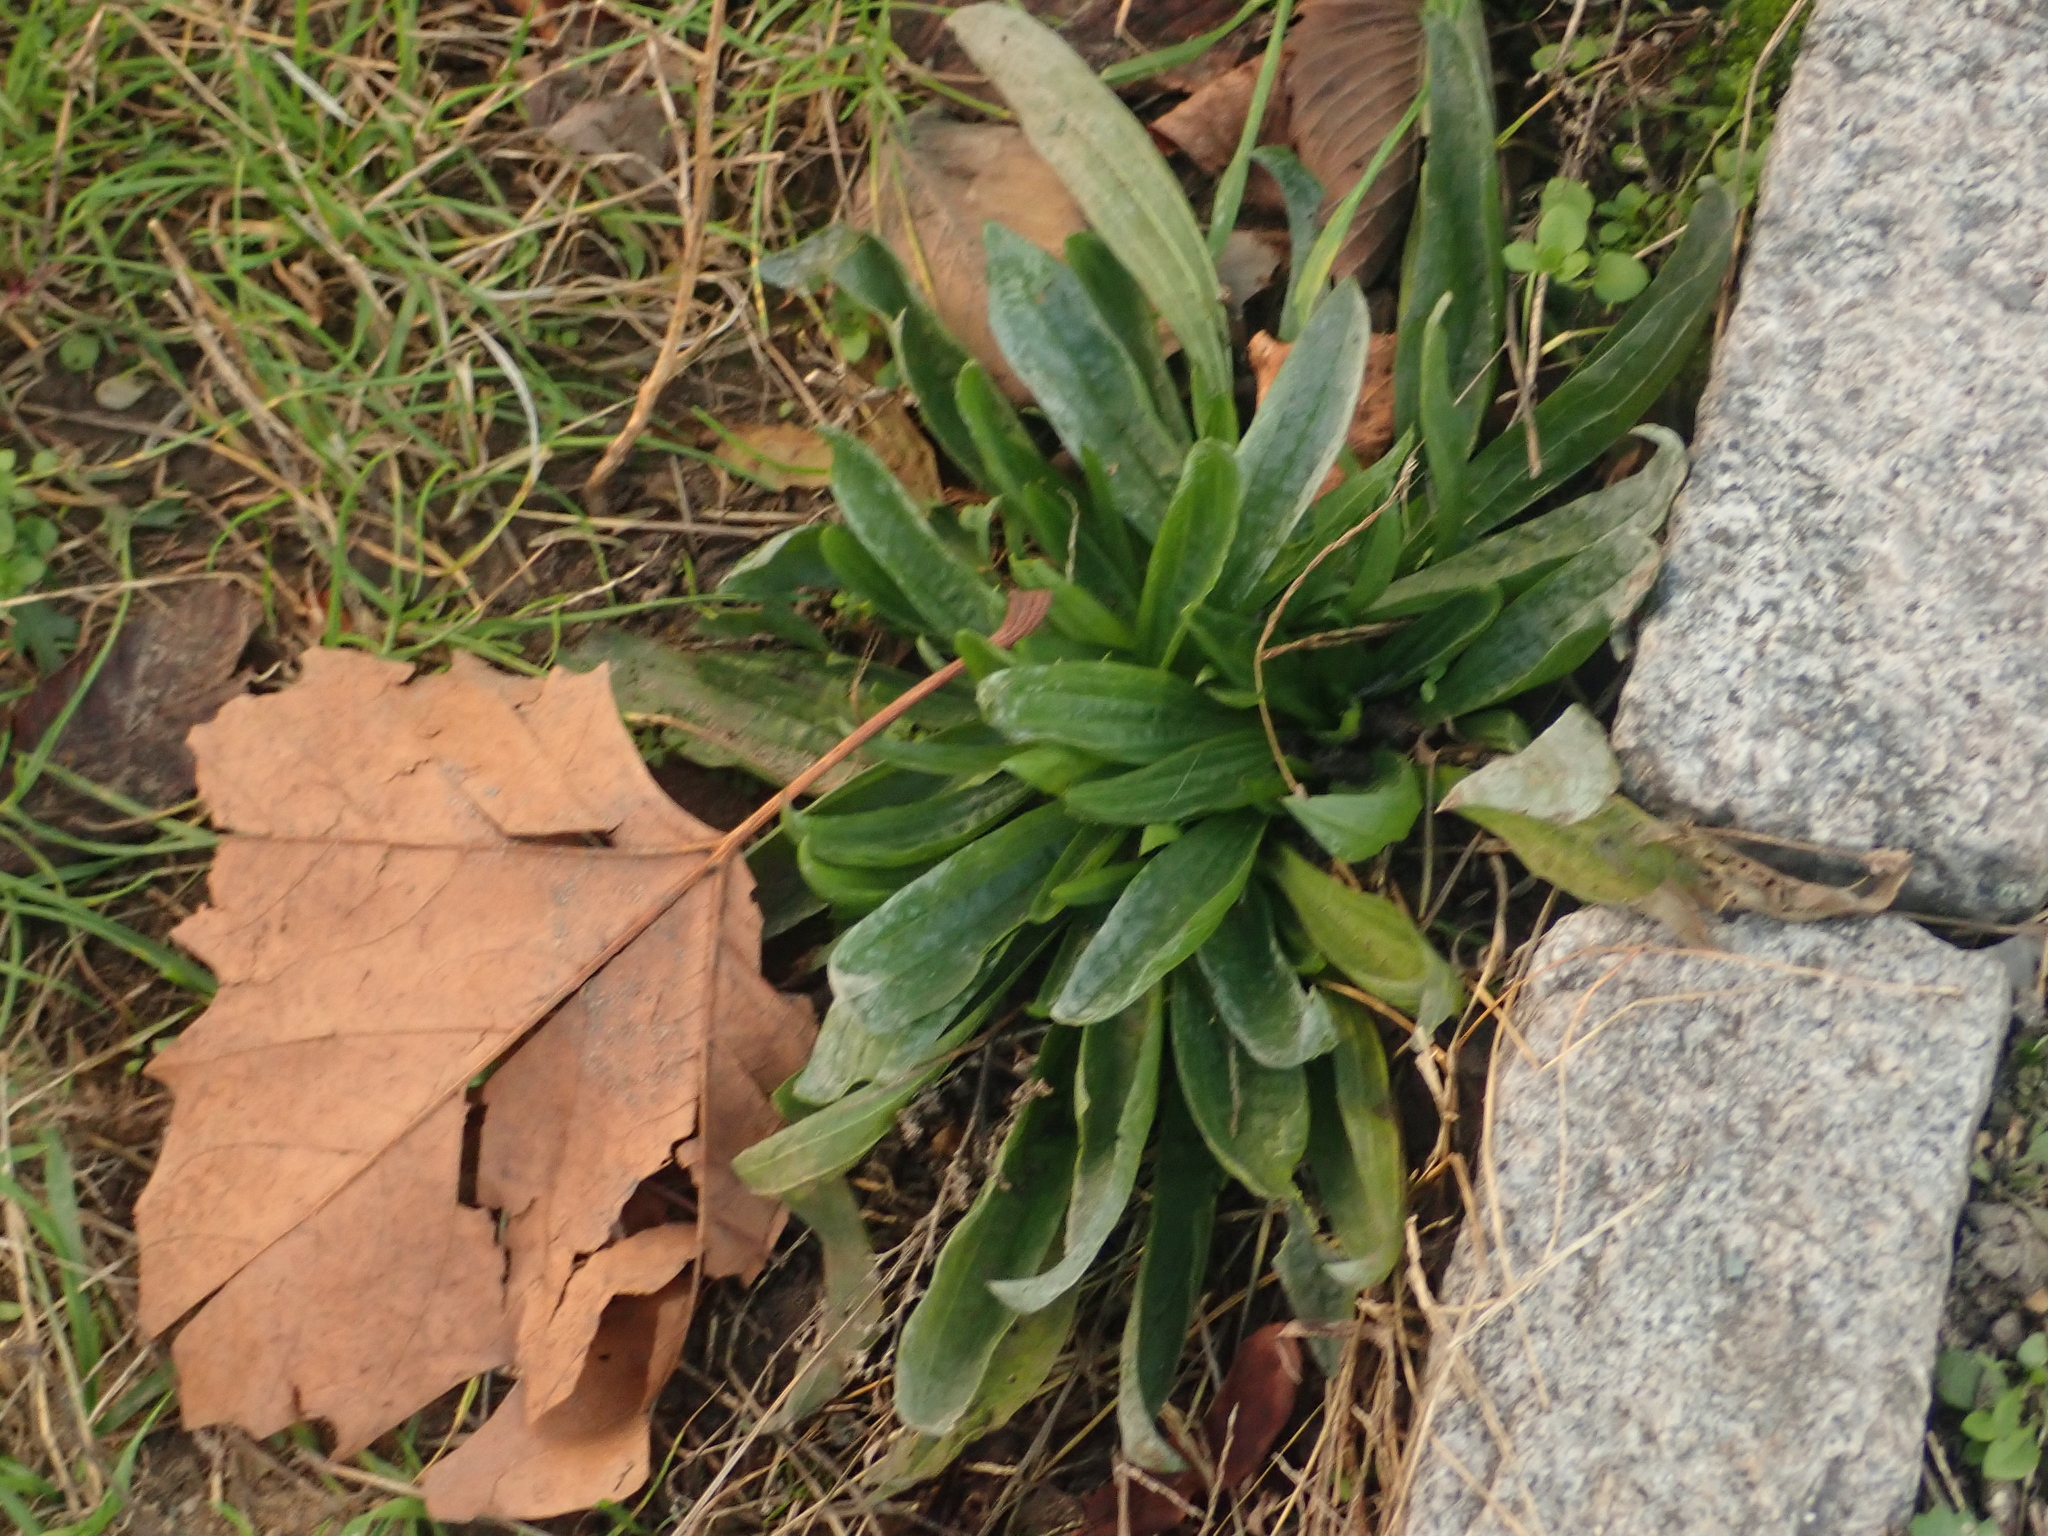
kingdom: Plantae
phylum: Tracheophyta
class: Magnoliopsida
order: Lamiales
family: Plantaginaceae
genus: Plantago
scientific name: Plantago lanceolata
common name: Ribwort plantain
